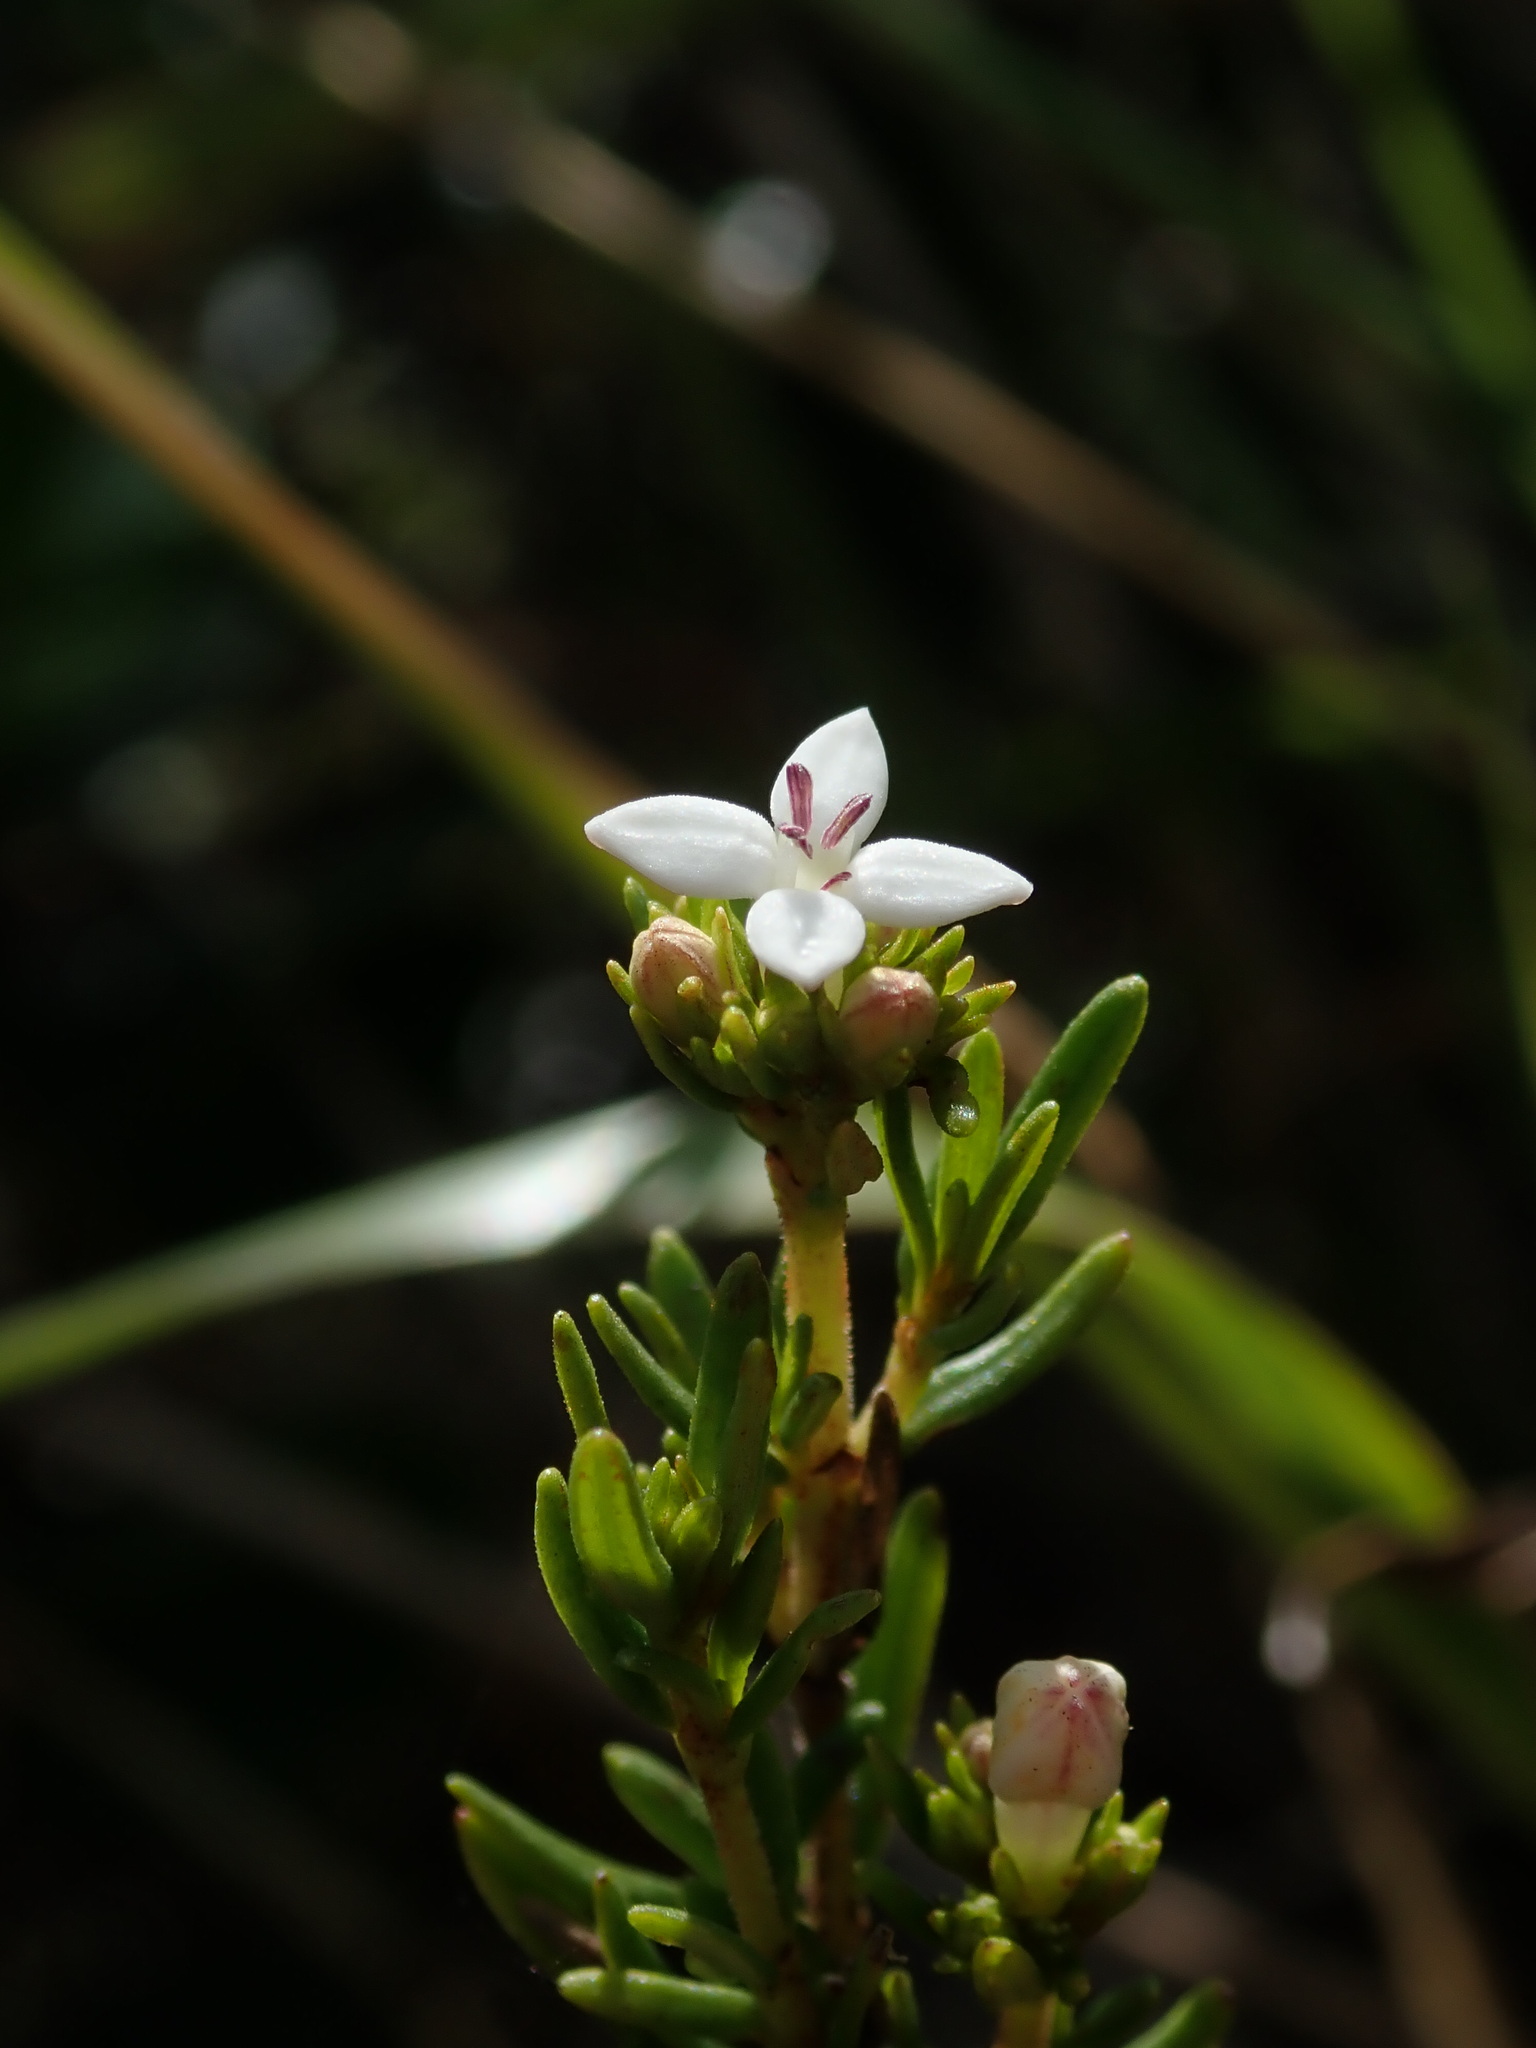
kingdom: Plantae
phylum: Tracheophyta
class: Magnoliopsida
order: Gentianales
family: Rubiaceae
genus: Arcytophyllum
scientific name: Arcytophyllum thymifolium
